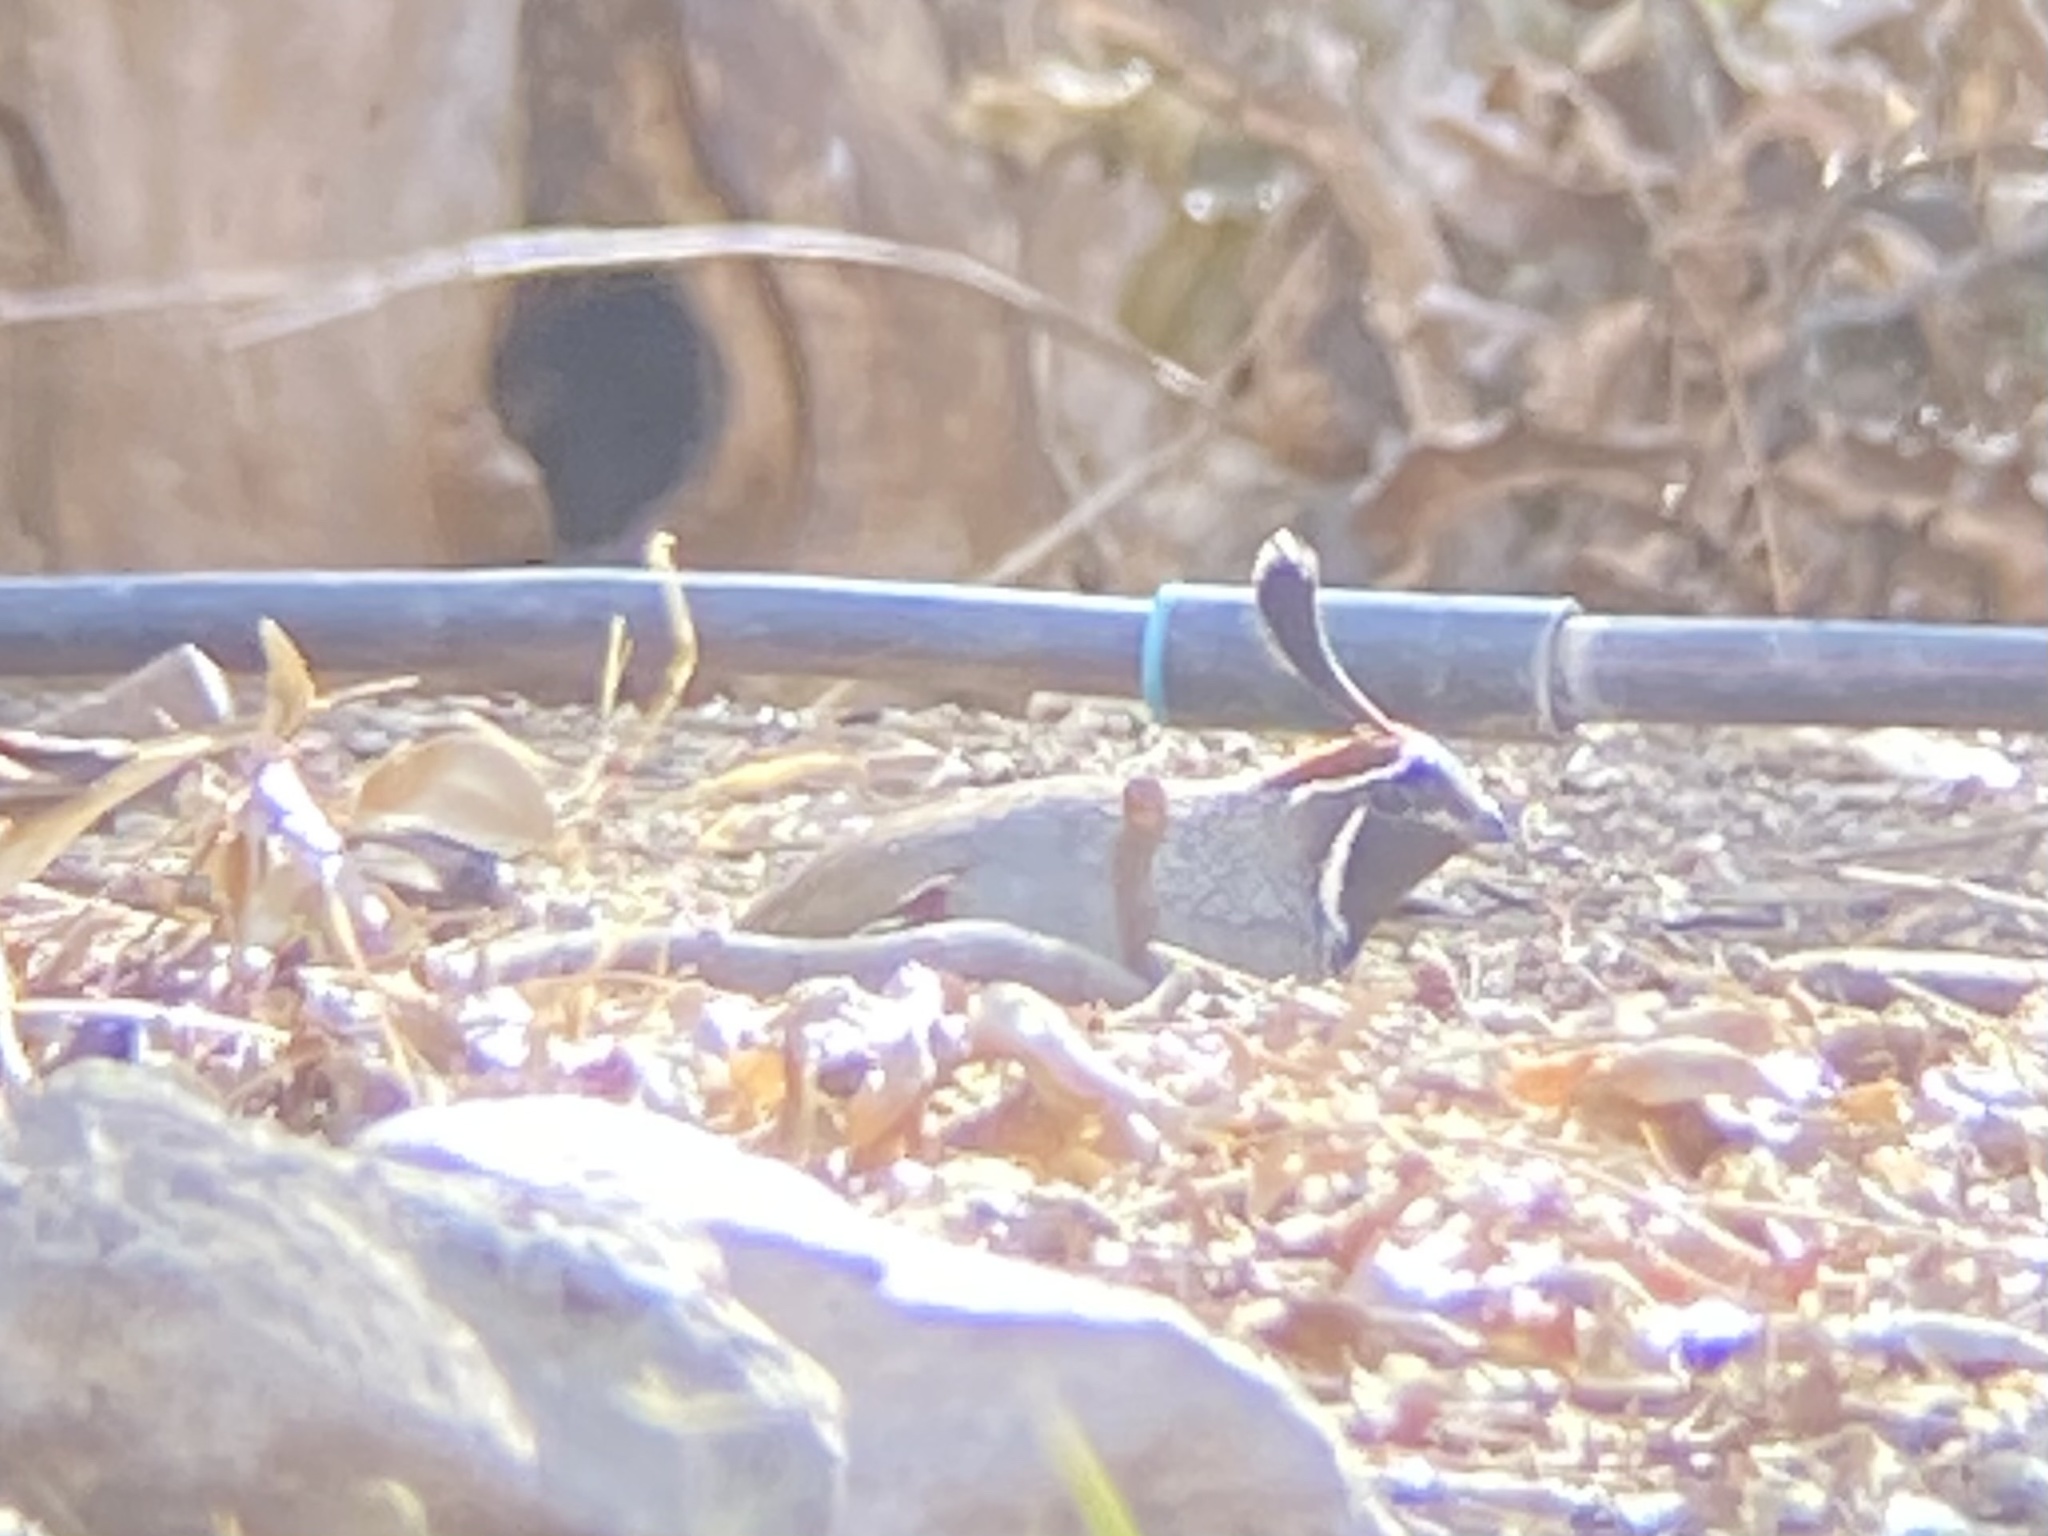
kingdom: Animalia
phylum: Chordata
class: Aves
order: Galliformes
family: Odontophoridae
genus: Callipepla
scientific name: Callipepla gambelii
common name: Gambel's quail
